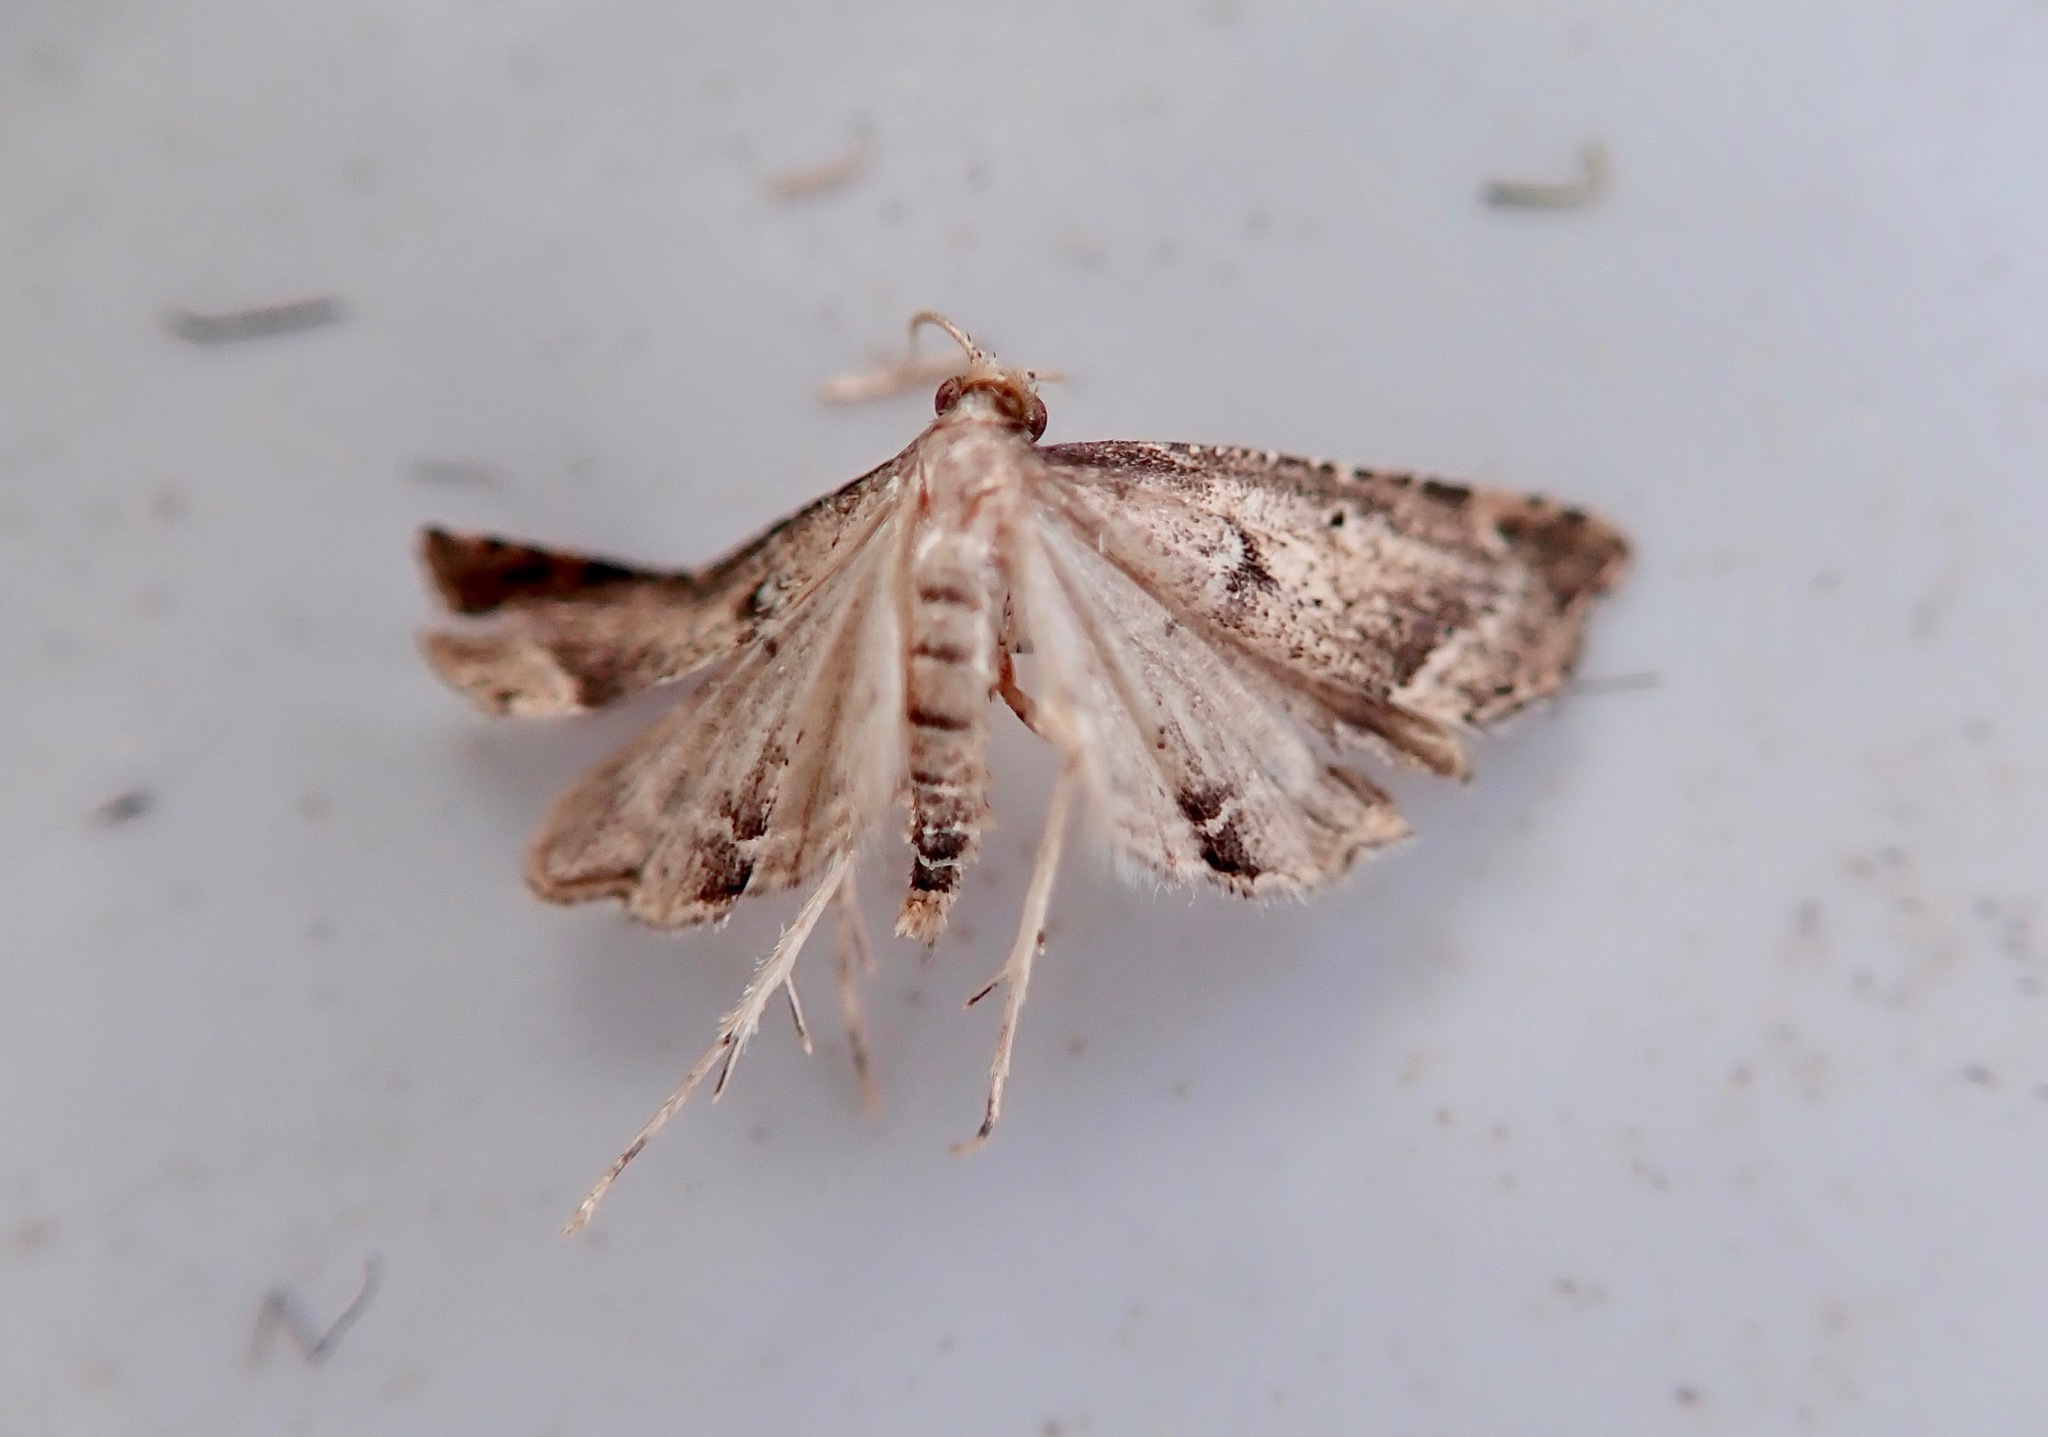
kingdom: Animalia
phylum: Arthropoda
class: Insecta
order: Lepidoptera
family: Crambidae
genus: Diplopseustis
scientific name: Diplopseustis perieresalis
